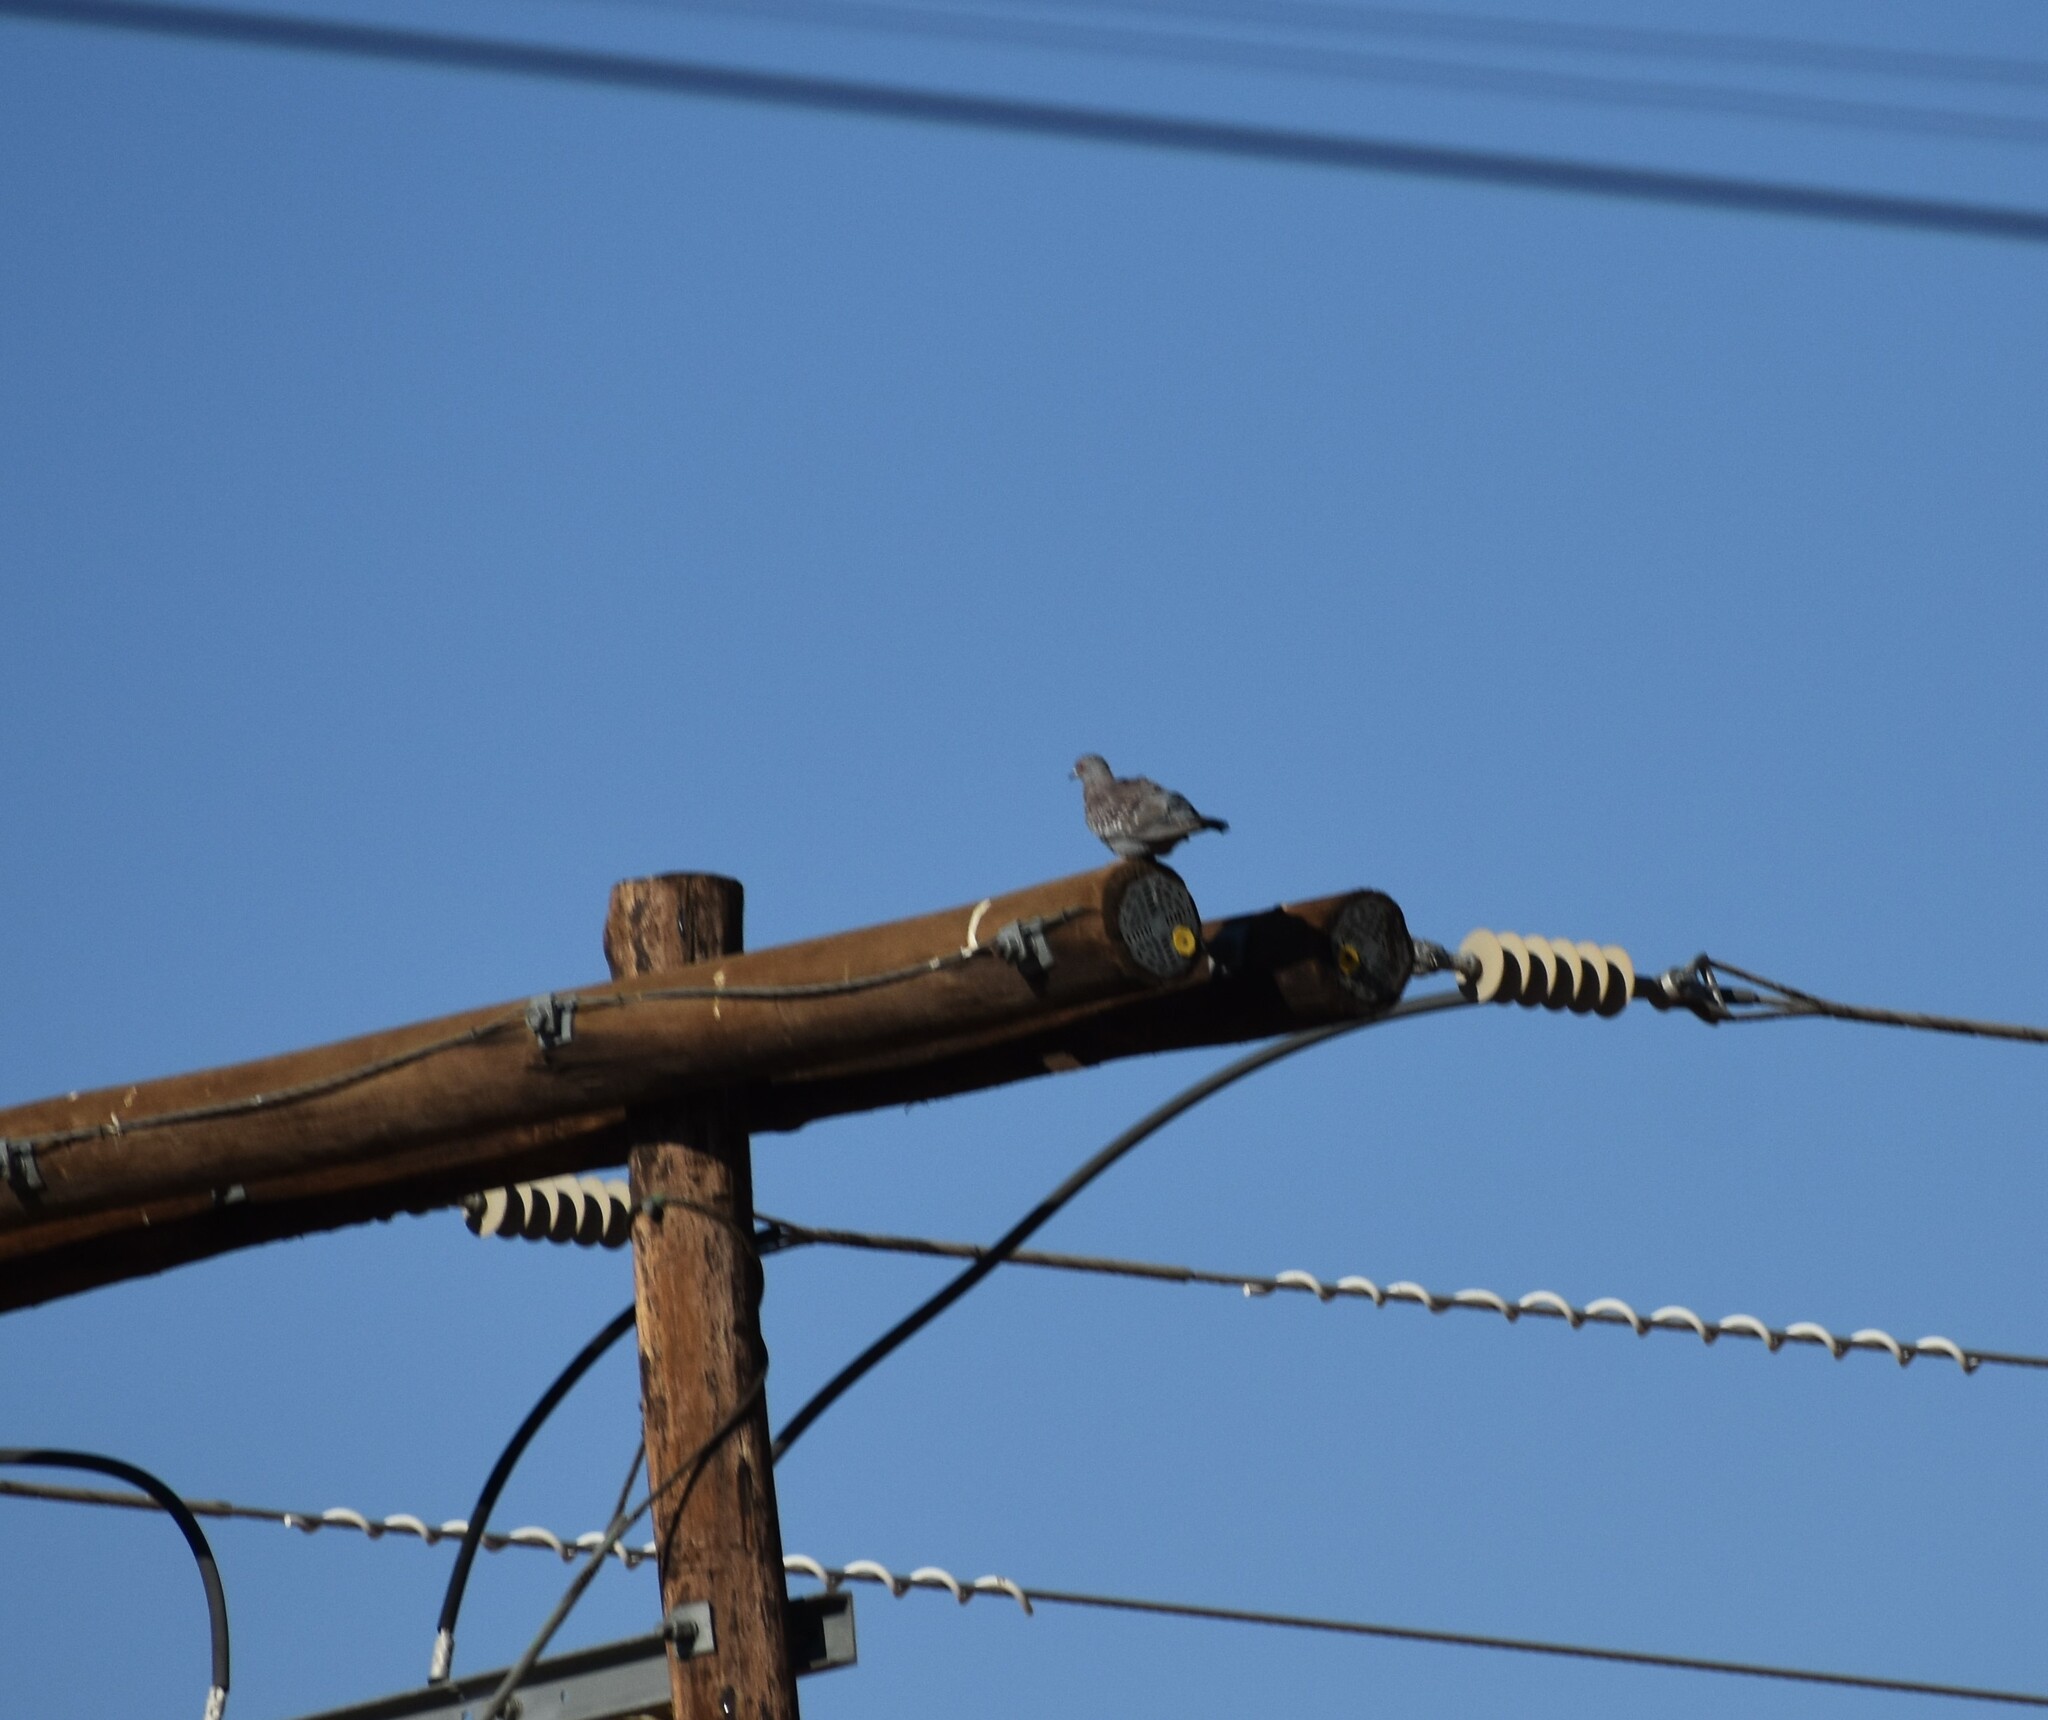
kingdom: Animalia
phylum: Chordata
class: Aves
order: Columbiformes
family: Columbidae
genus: Columba
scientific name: Columba guinea
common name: Speckled pigeon
